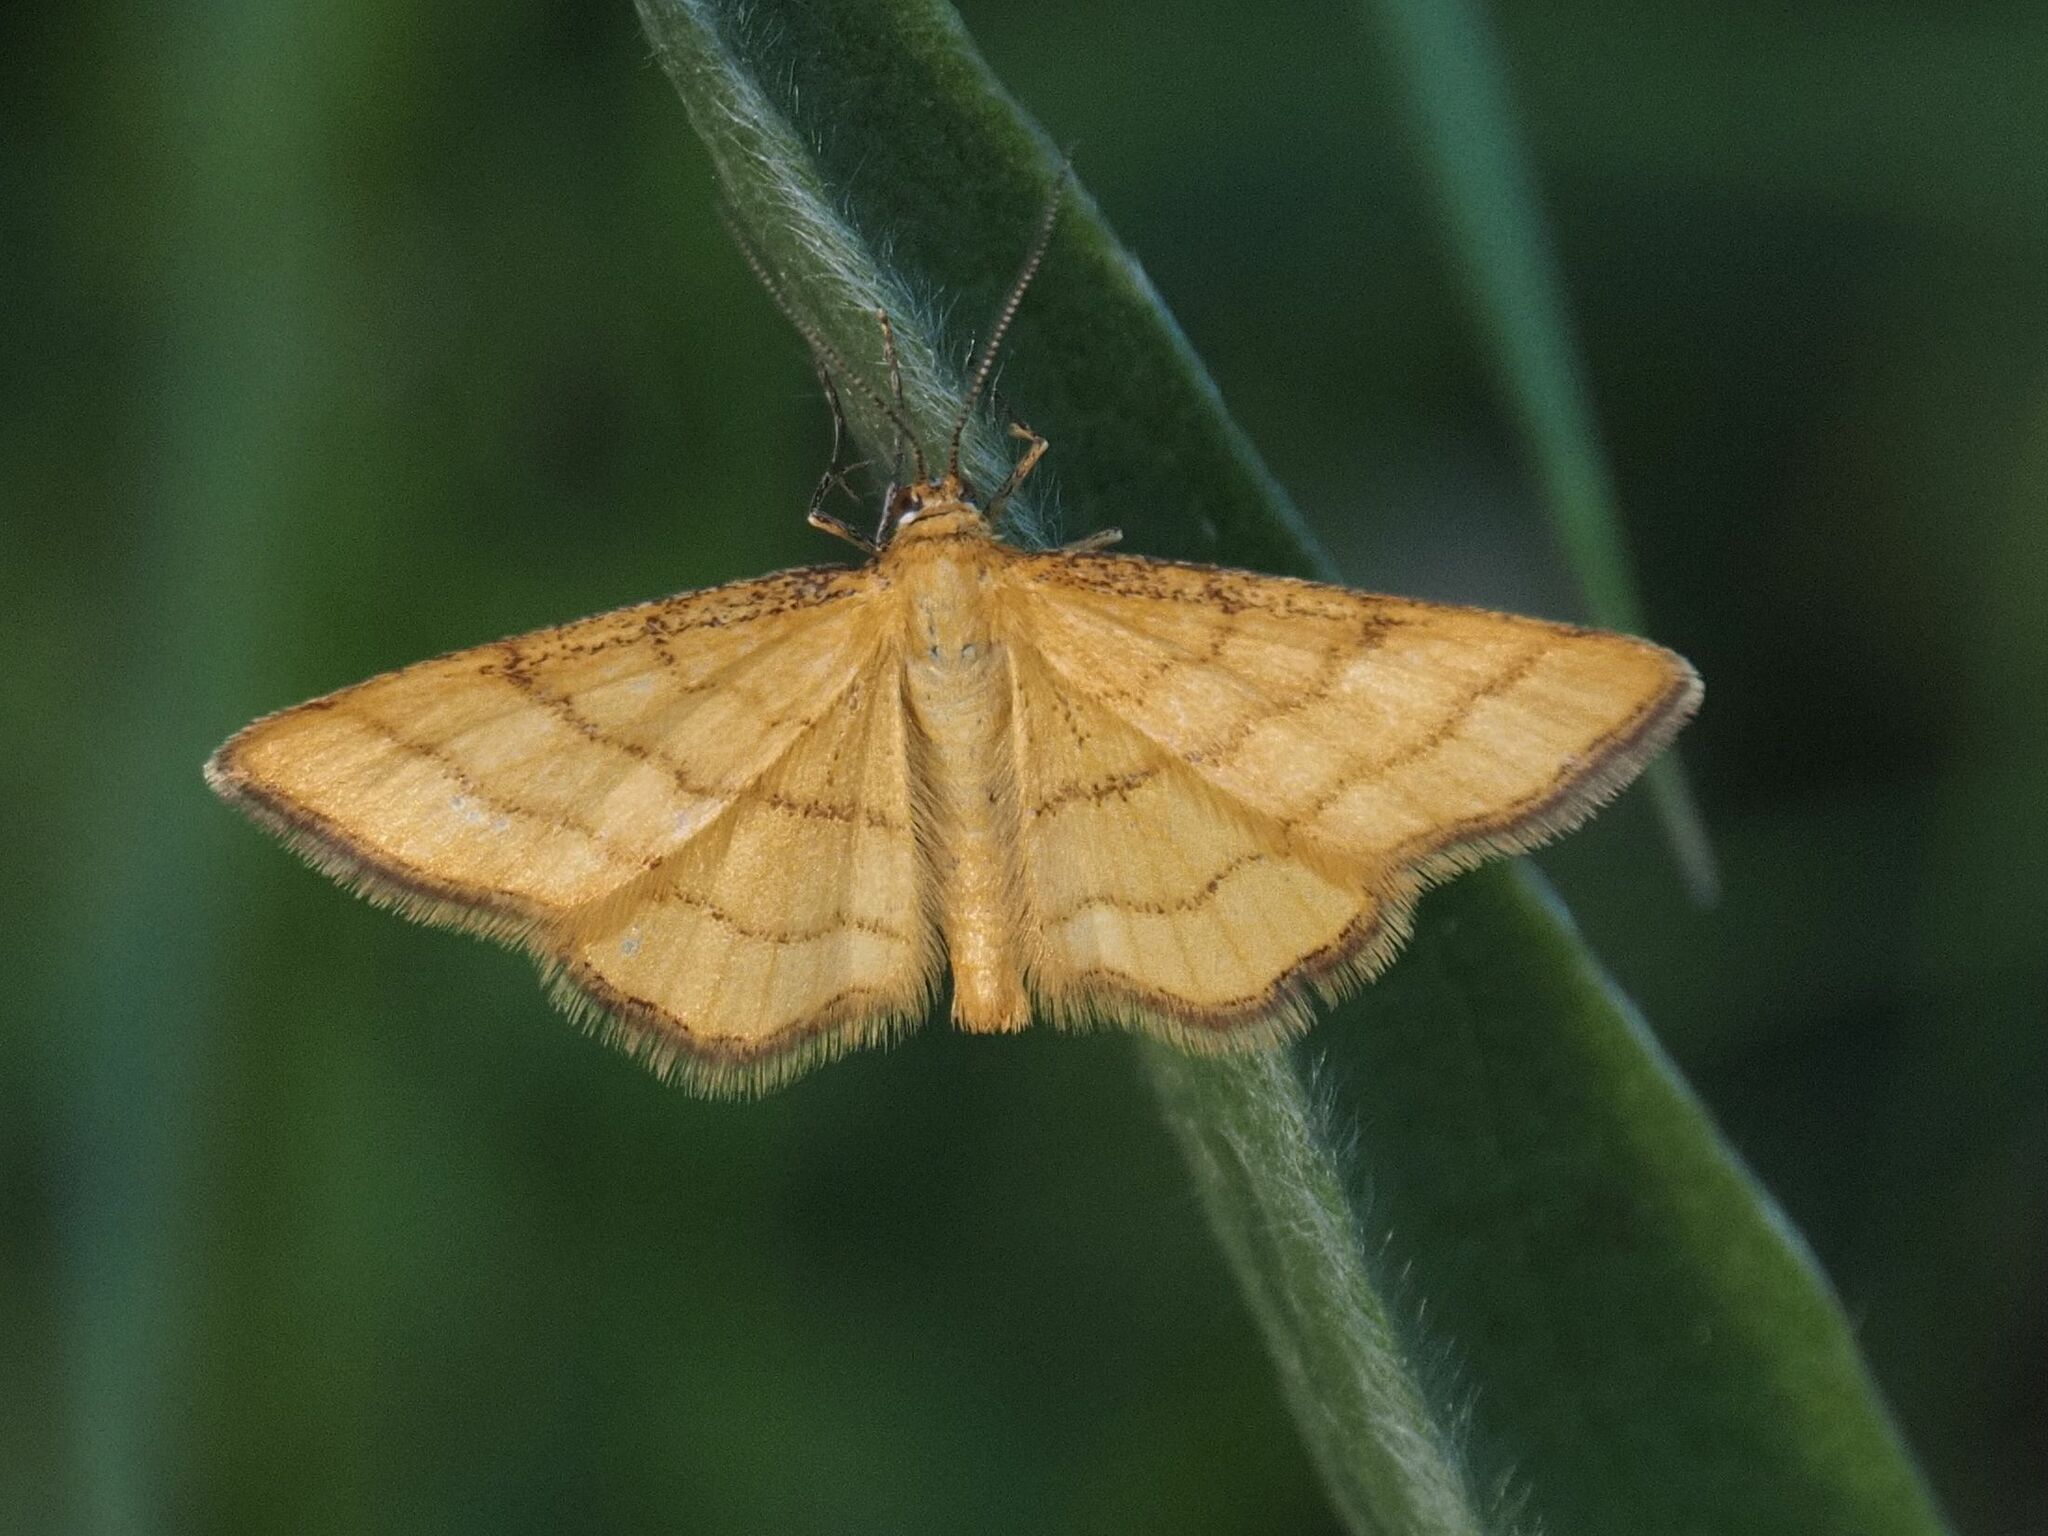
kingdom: Animalia
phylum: Arthropoda
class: Insecta
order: Lepidoptera
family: Geometridae
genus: Idaea
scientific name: Idaea aureolaria
